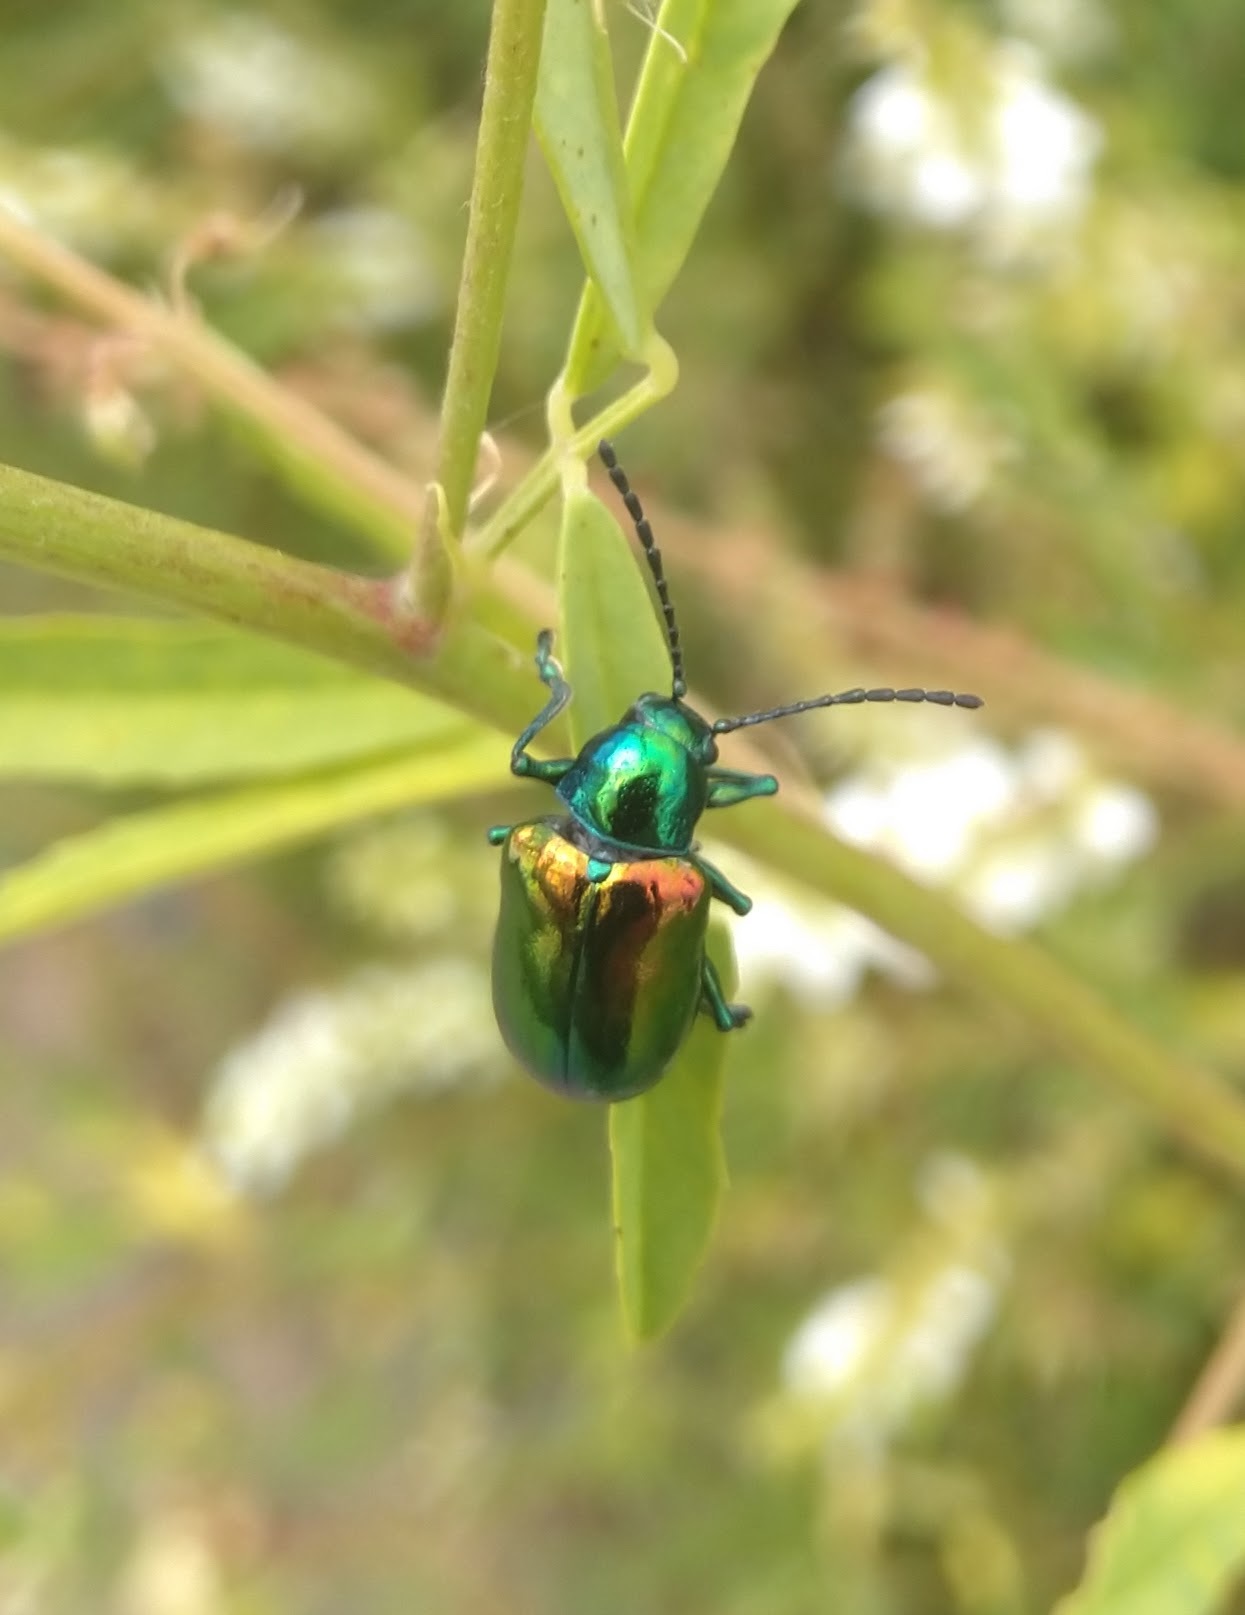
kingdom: Animalia
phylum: Arthropoda
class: Insecta
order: Coleoptera
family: Chrysomelidae
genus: Chrysochus
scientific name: Chrysochus auratus
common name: Dogbane leaf beetle
